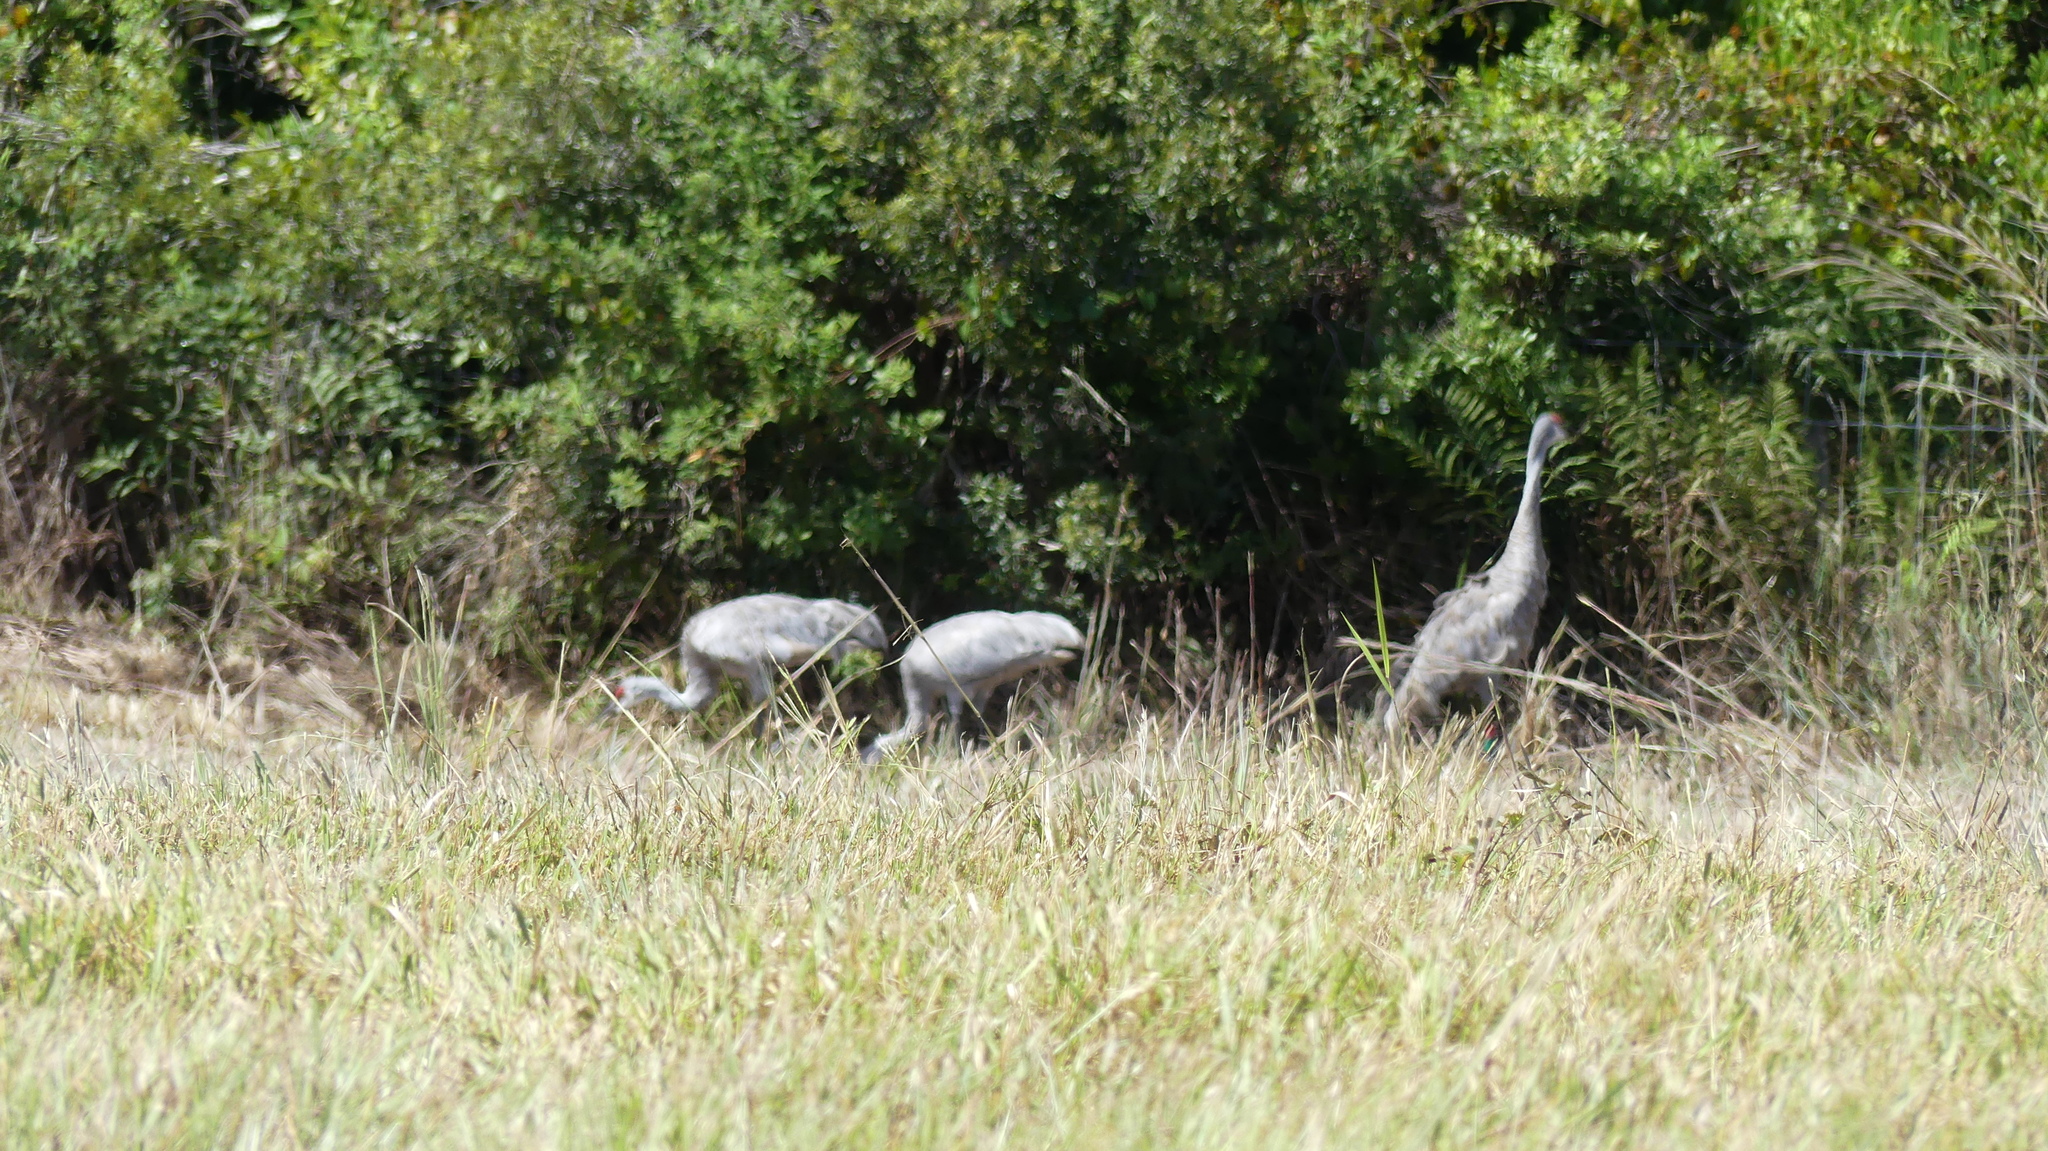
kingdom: Animalia
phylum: Chordata
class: Aves
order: Gruiformes
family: Gruidae
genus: Grus
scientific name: Grus canadensis
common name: Sandhill crane
